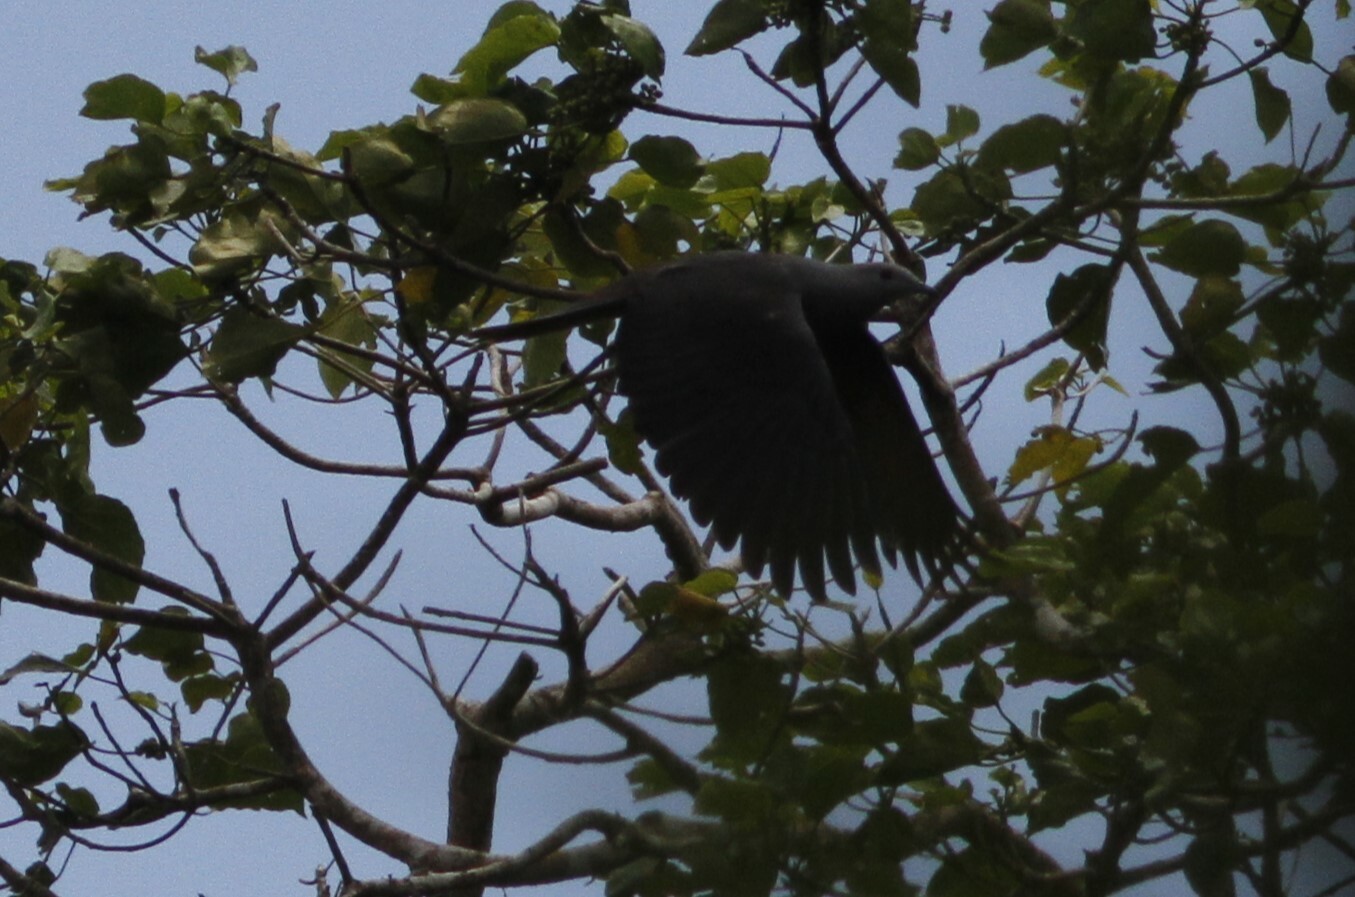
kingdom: Animalia
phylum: Chordata
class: Aves
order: Columbiformes
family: Columbidae
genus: Ducula
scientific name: Ducula latrans
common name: Barking imperial pigeon
